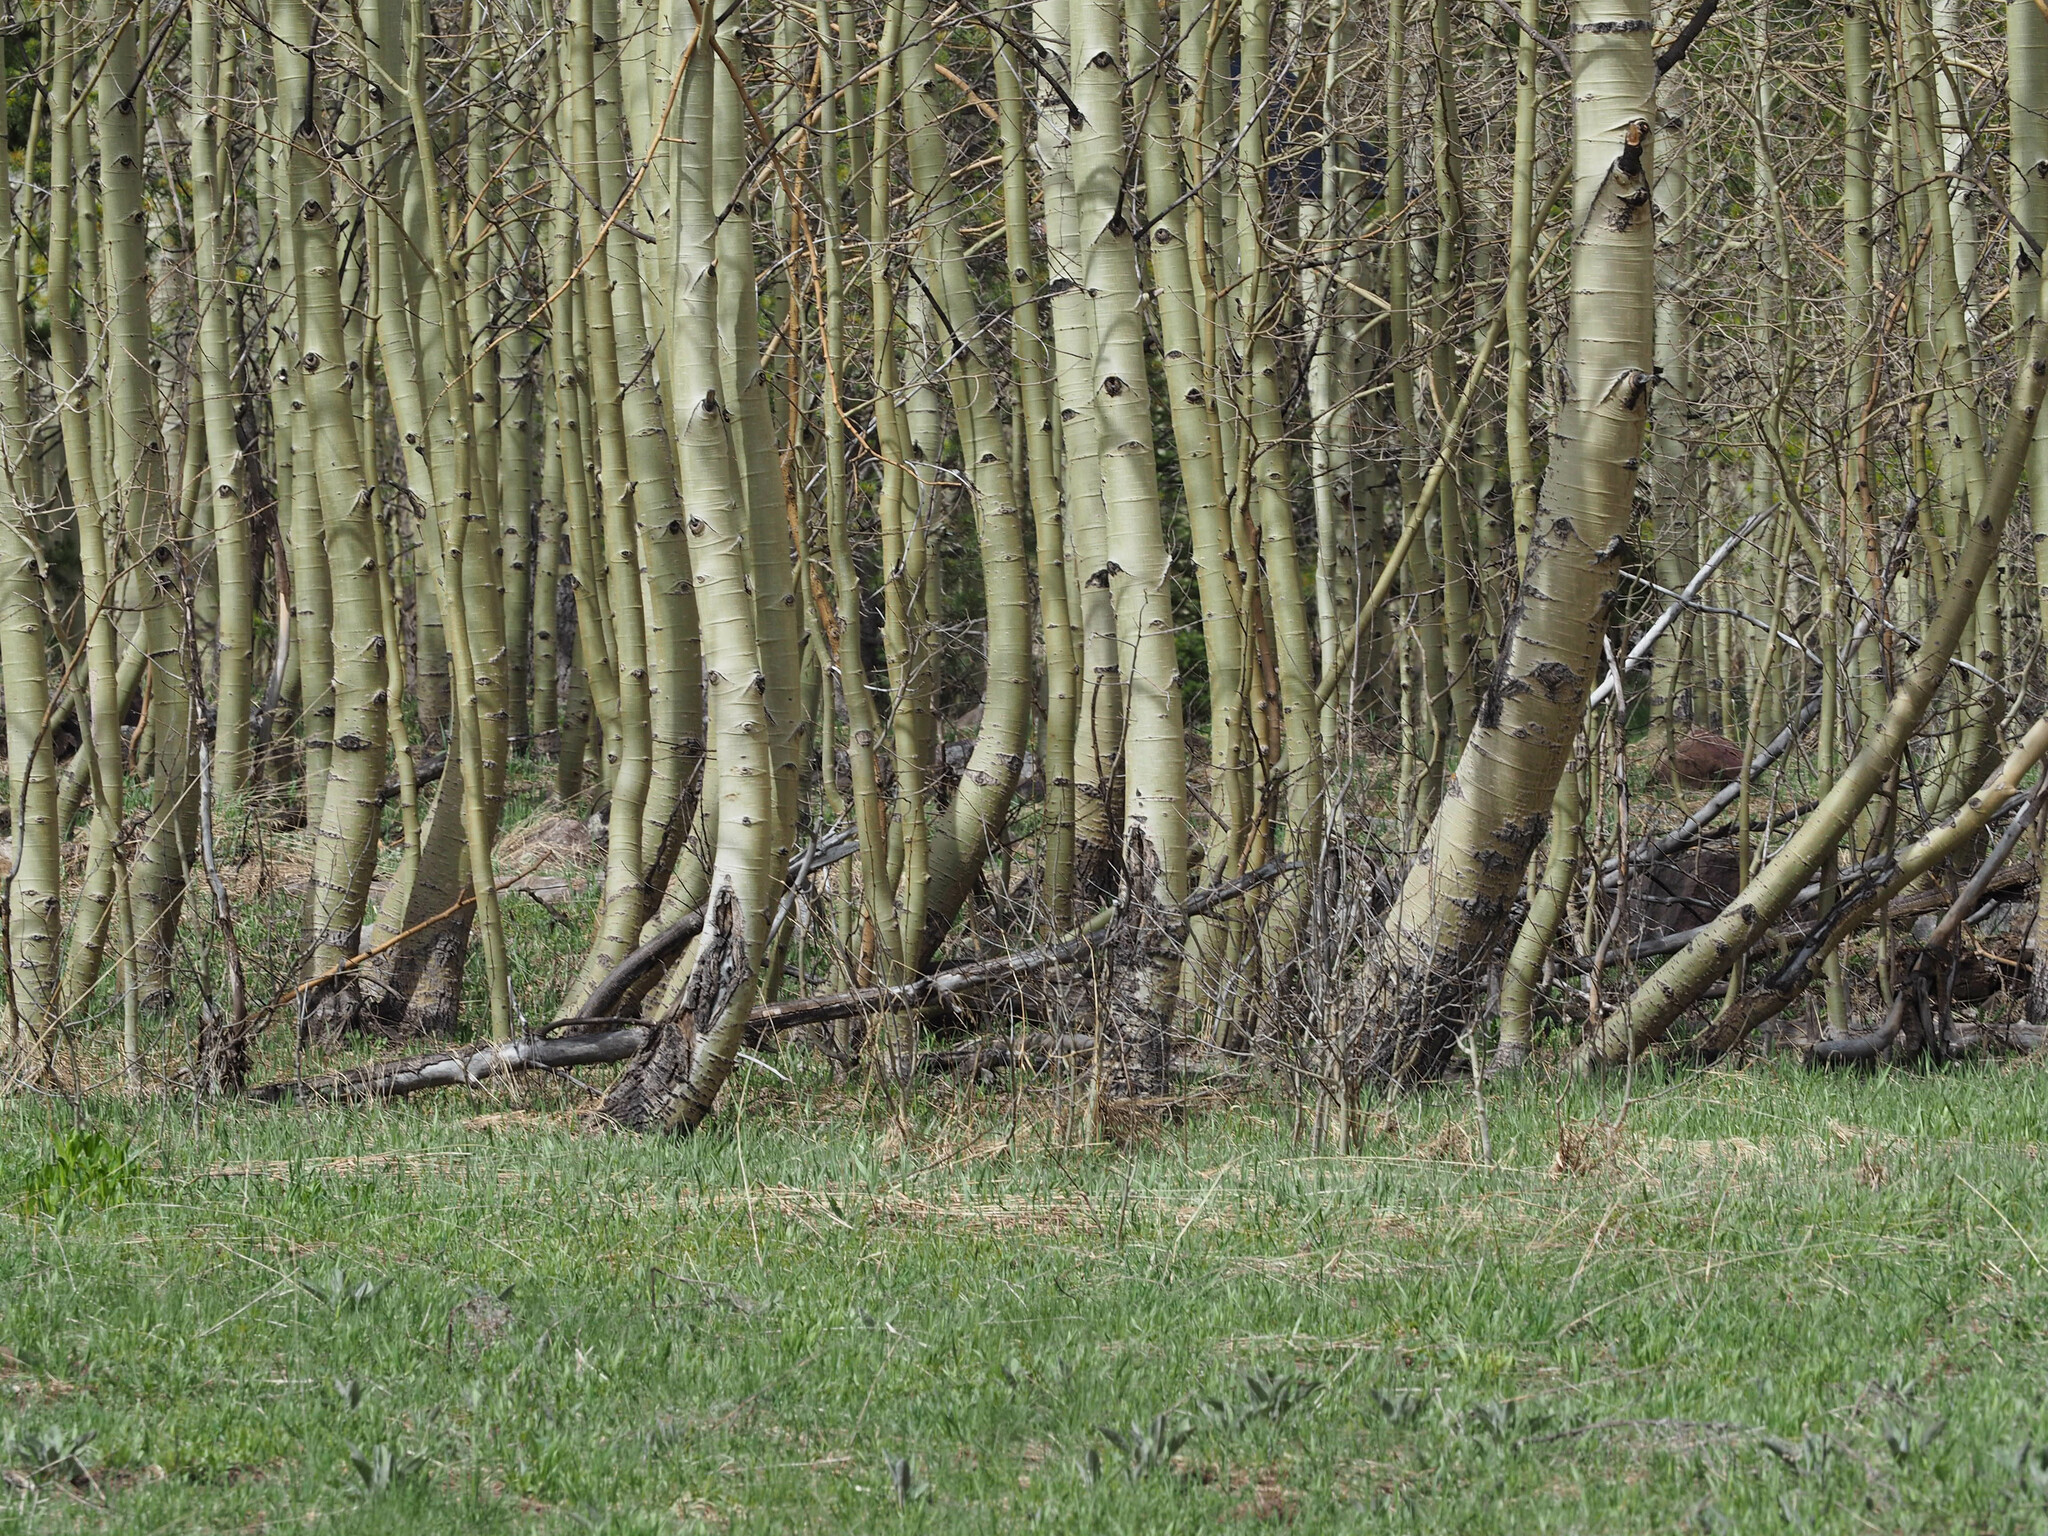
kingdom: Plantae
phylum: Tracheophyta
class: Magnoliopsida
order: Malpighiales
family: Salicaceae
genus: Populus
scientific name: Populus tremuloides
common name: Quaking aspen
